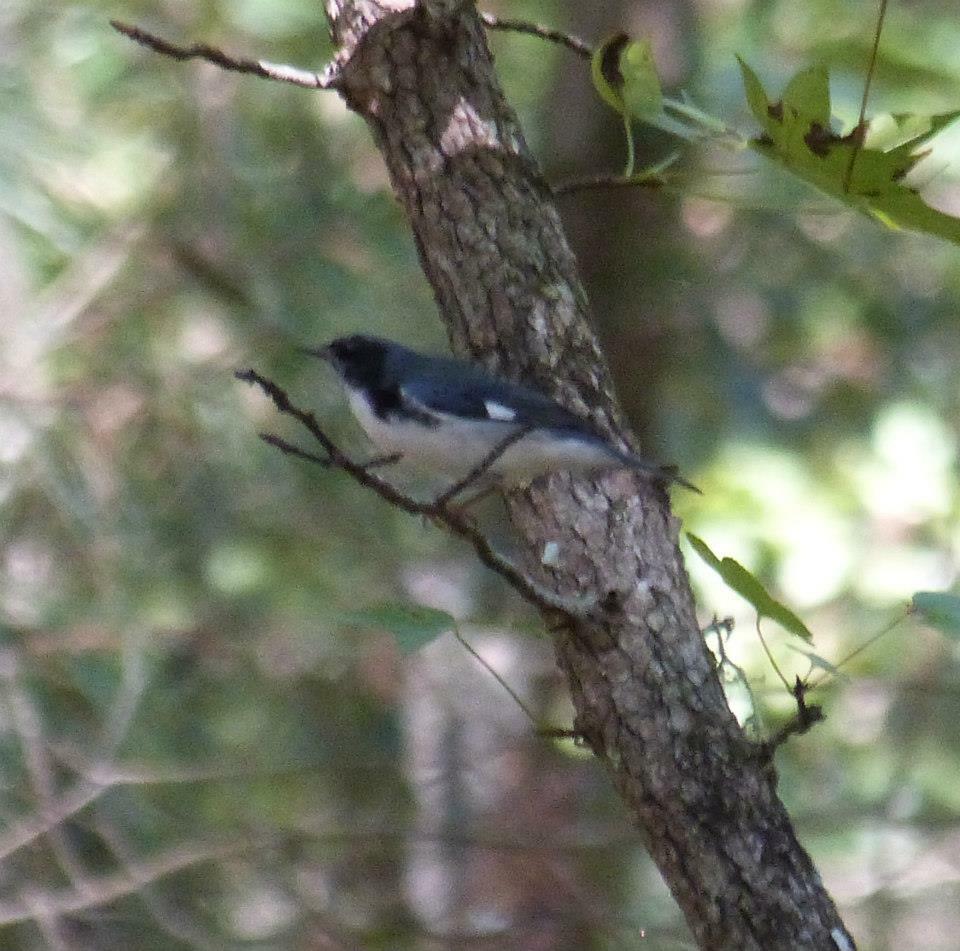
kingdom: Animalia
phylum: Chordata
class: Aves
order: Passeriformes
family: Parulidae
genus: Setophaga
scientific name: Setophaga caerulescens
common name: Black-throated blue warbler
